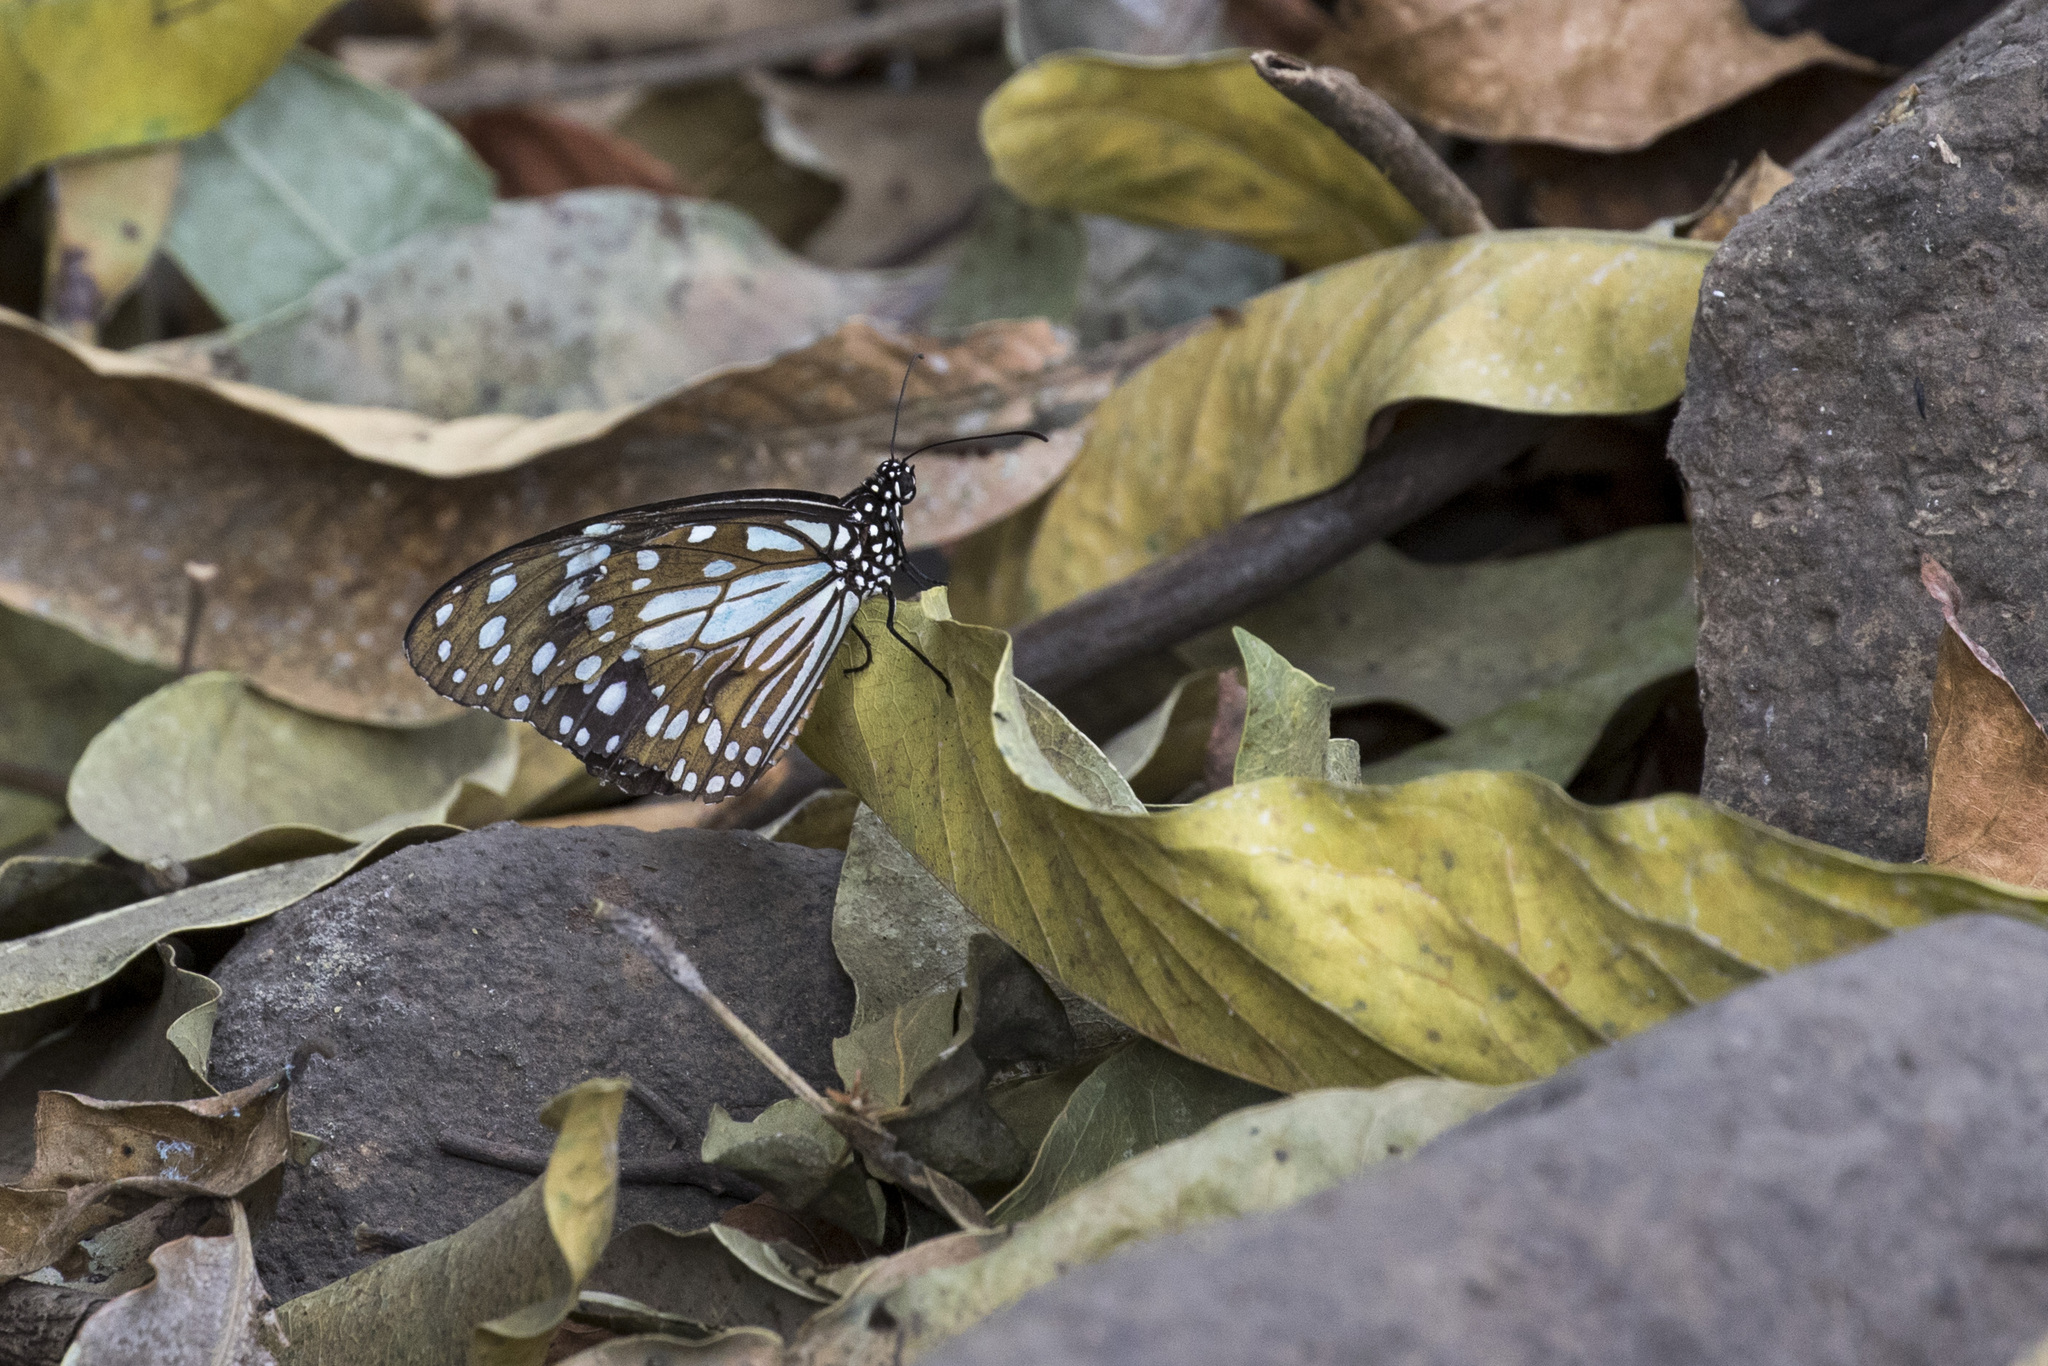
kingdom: Animalia
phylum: Arthropoda
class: Insecta
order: Lepidoptera
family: Nymphalidae
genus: Tirumala
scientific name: Tirumala limniace
